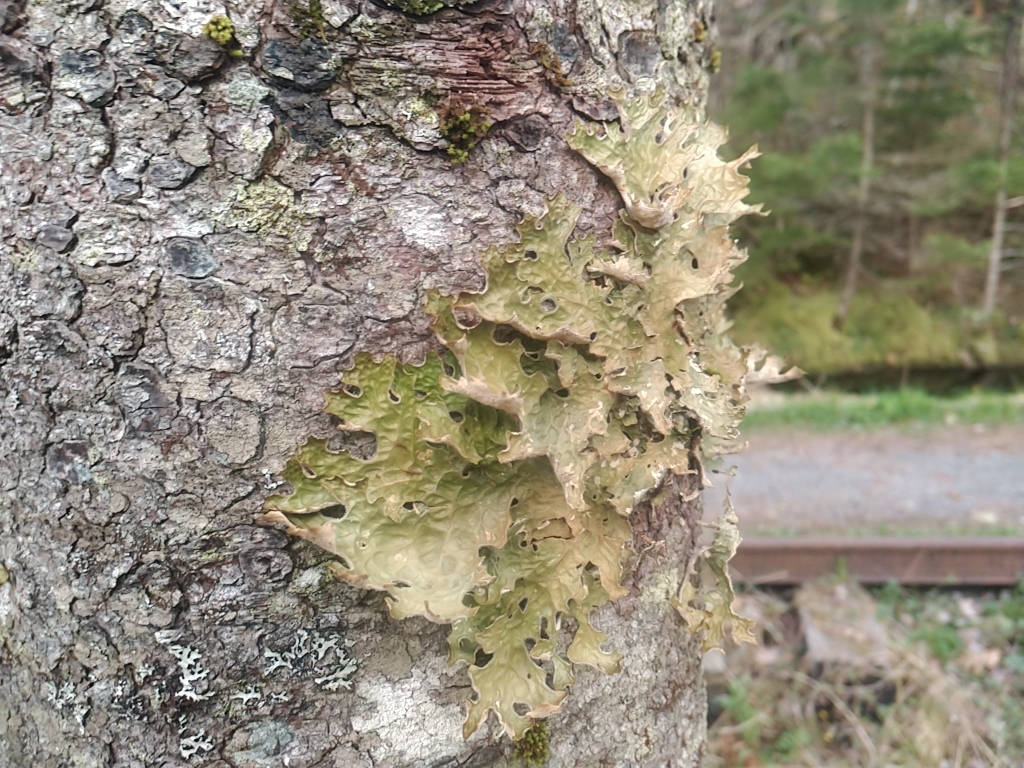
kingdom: Fungi
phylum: Ascomycota
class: Lecanoromycetes
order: Peltigerales
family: Lobariaceae
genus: Lobaria
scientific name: Lobaria pulmonaria
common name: Lungwort
